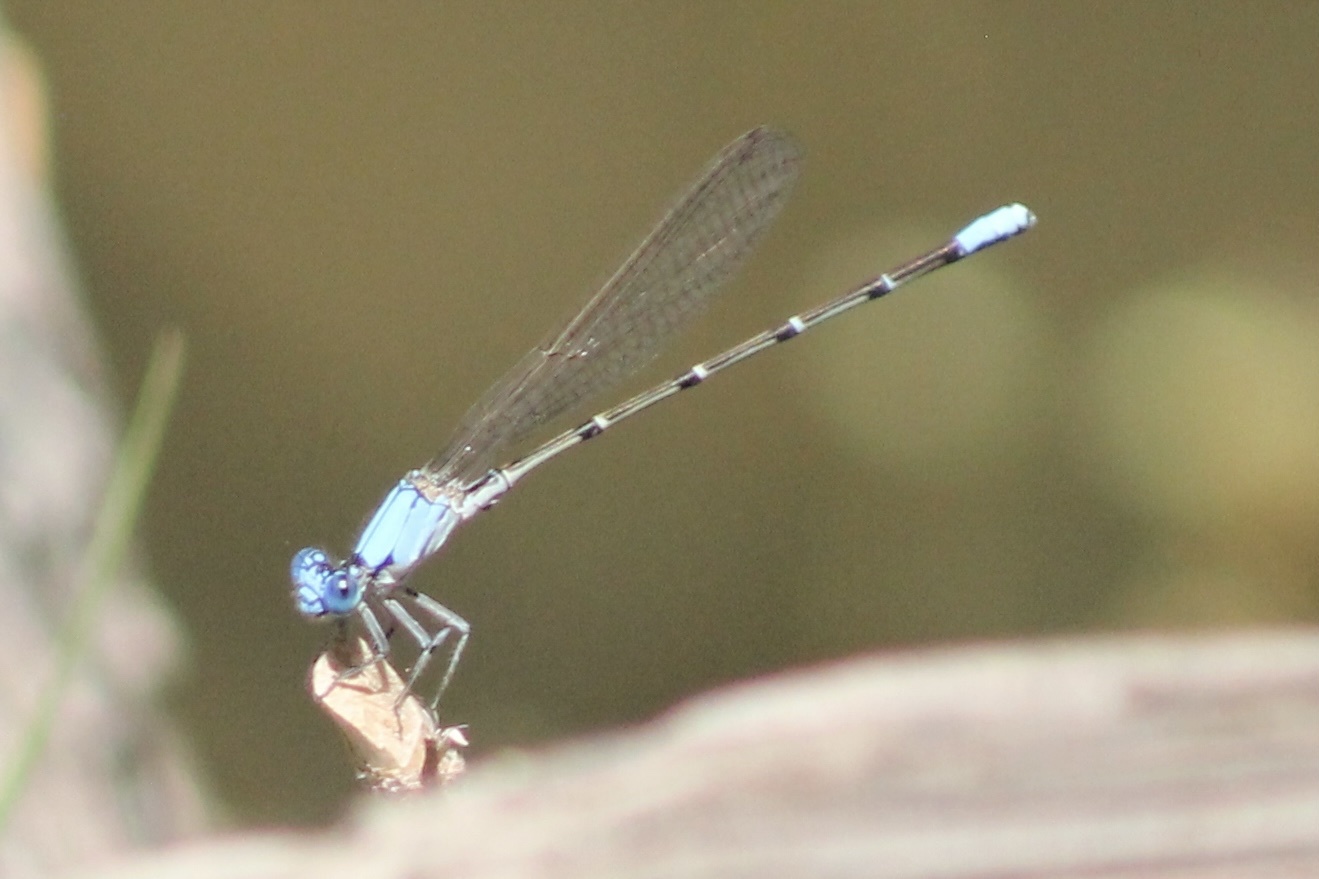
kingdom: Animalia
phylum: Arthropoda
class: Insecta
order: Odonata
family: Coenagrionidae
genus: Argia
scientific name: Argia apicalis
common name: Blue-fronted dancer
